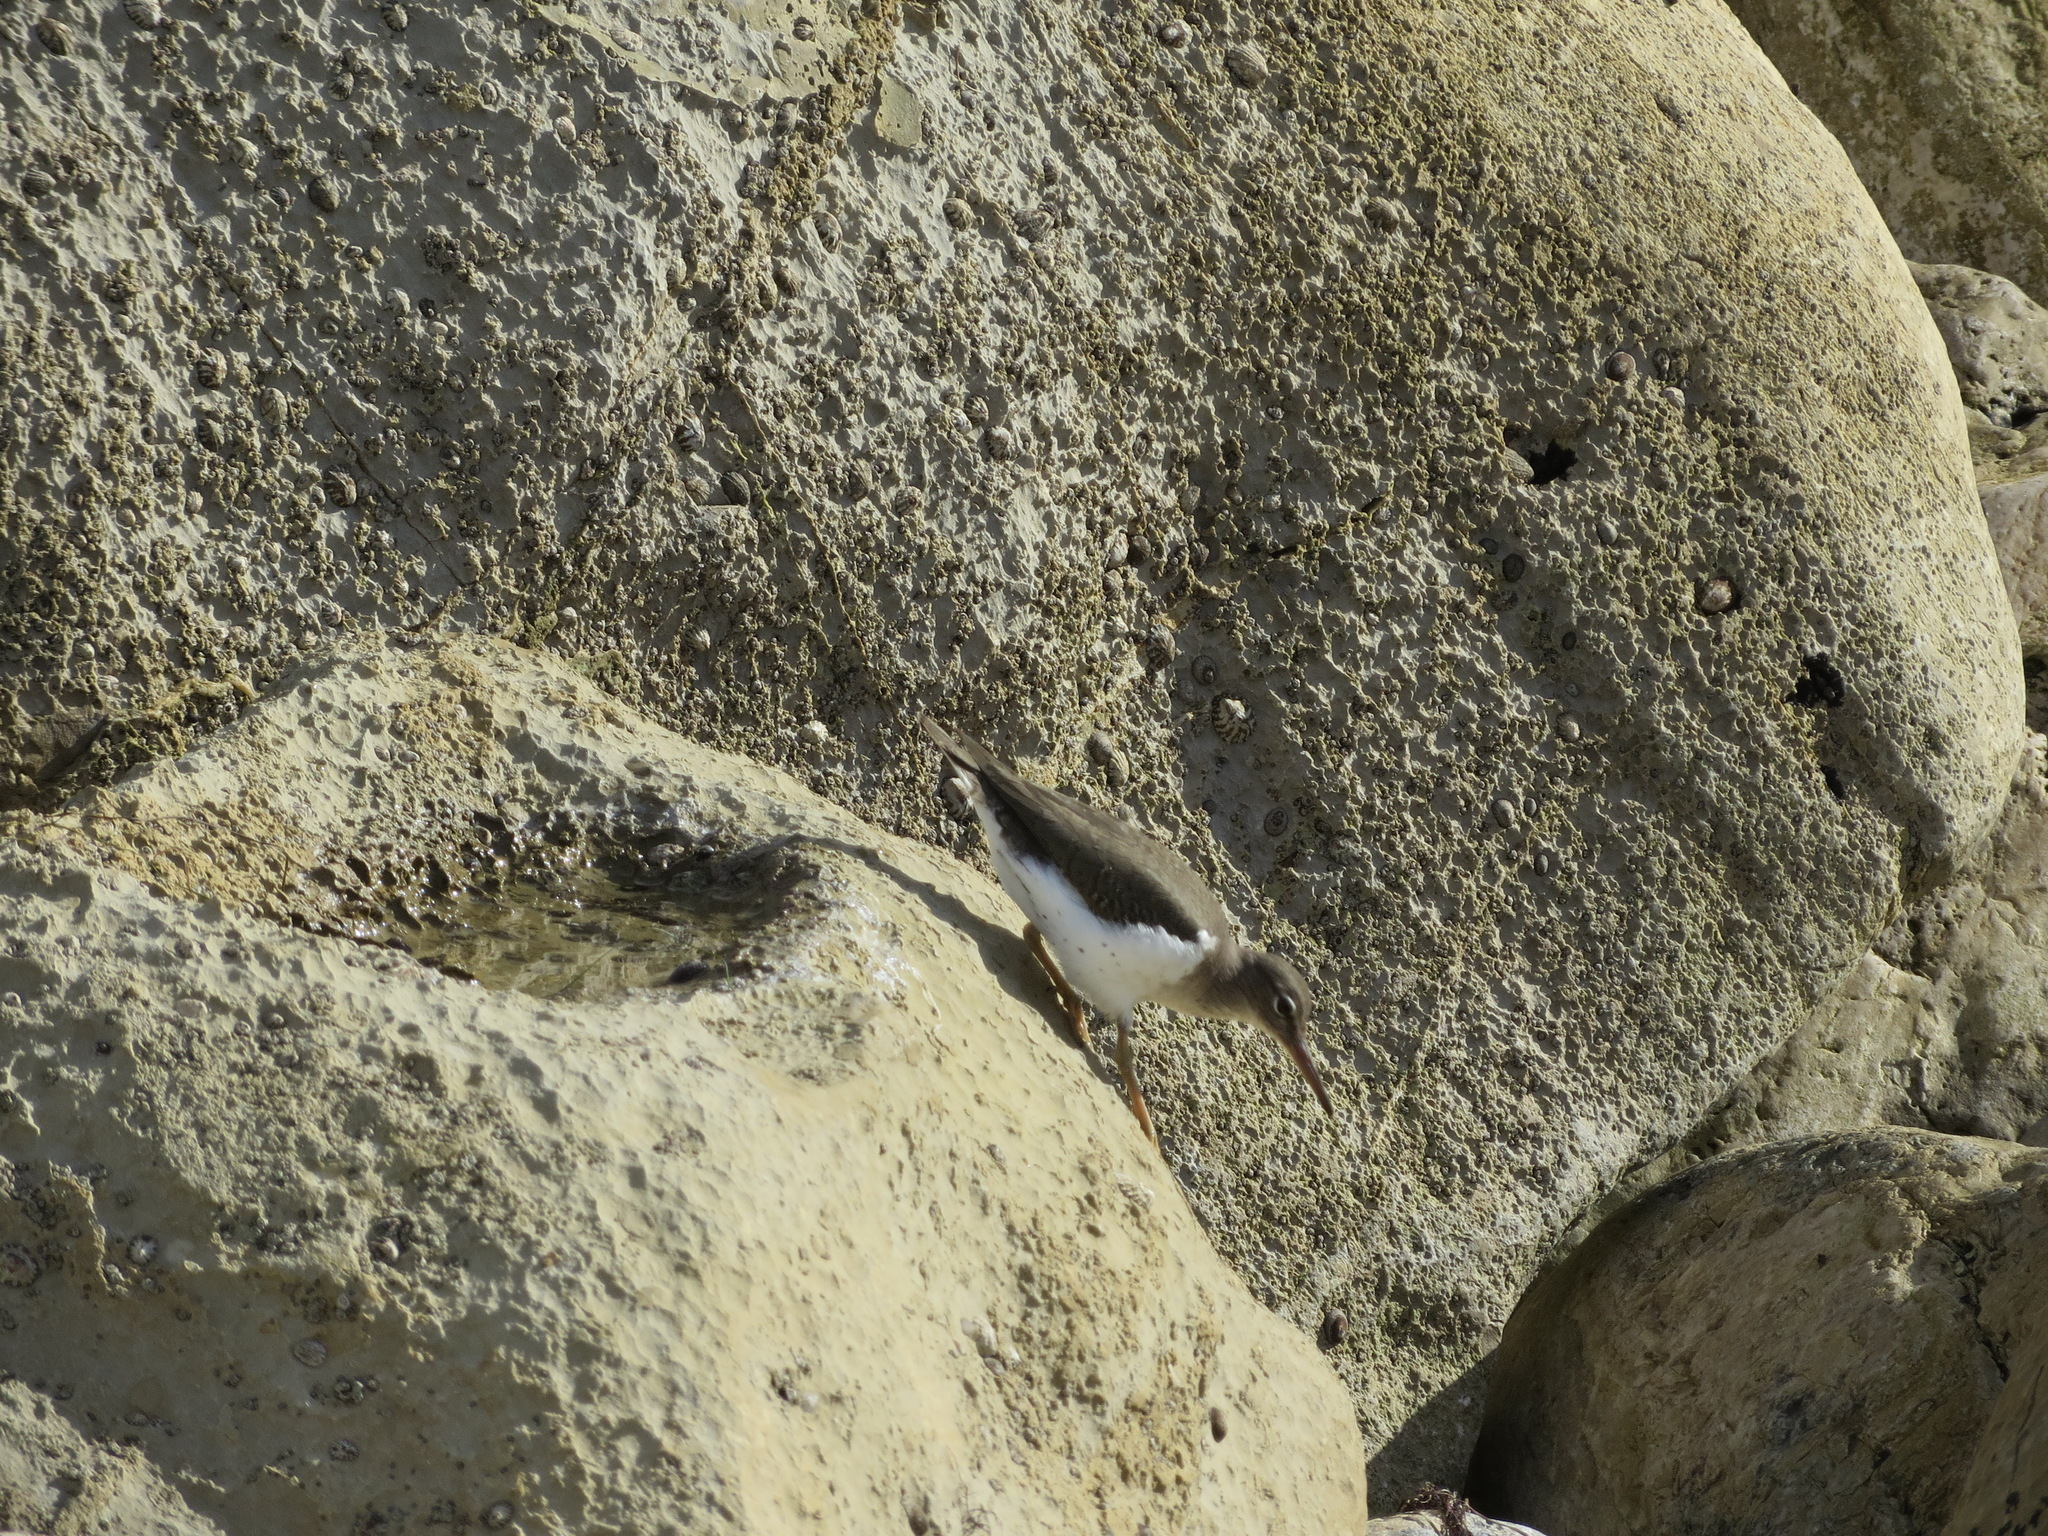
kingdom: Animalia
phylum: Chordata
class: Aves
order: Charadriiformes
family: Scolopacidae
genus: Actitis
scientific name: Actitis macularius
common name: Spotted sandpiper
